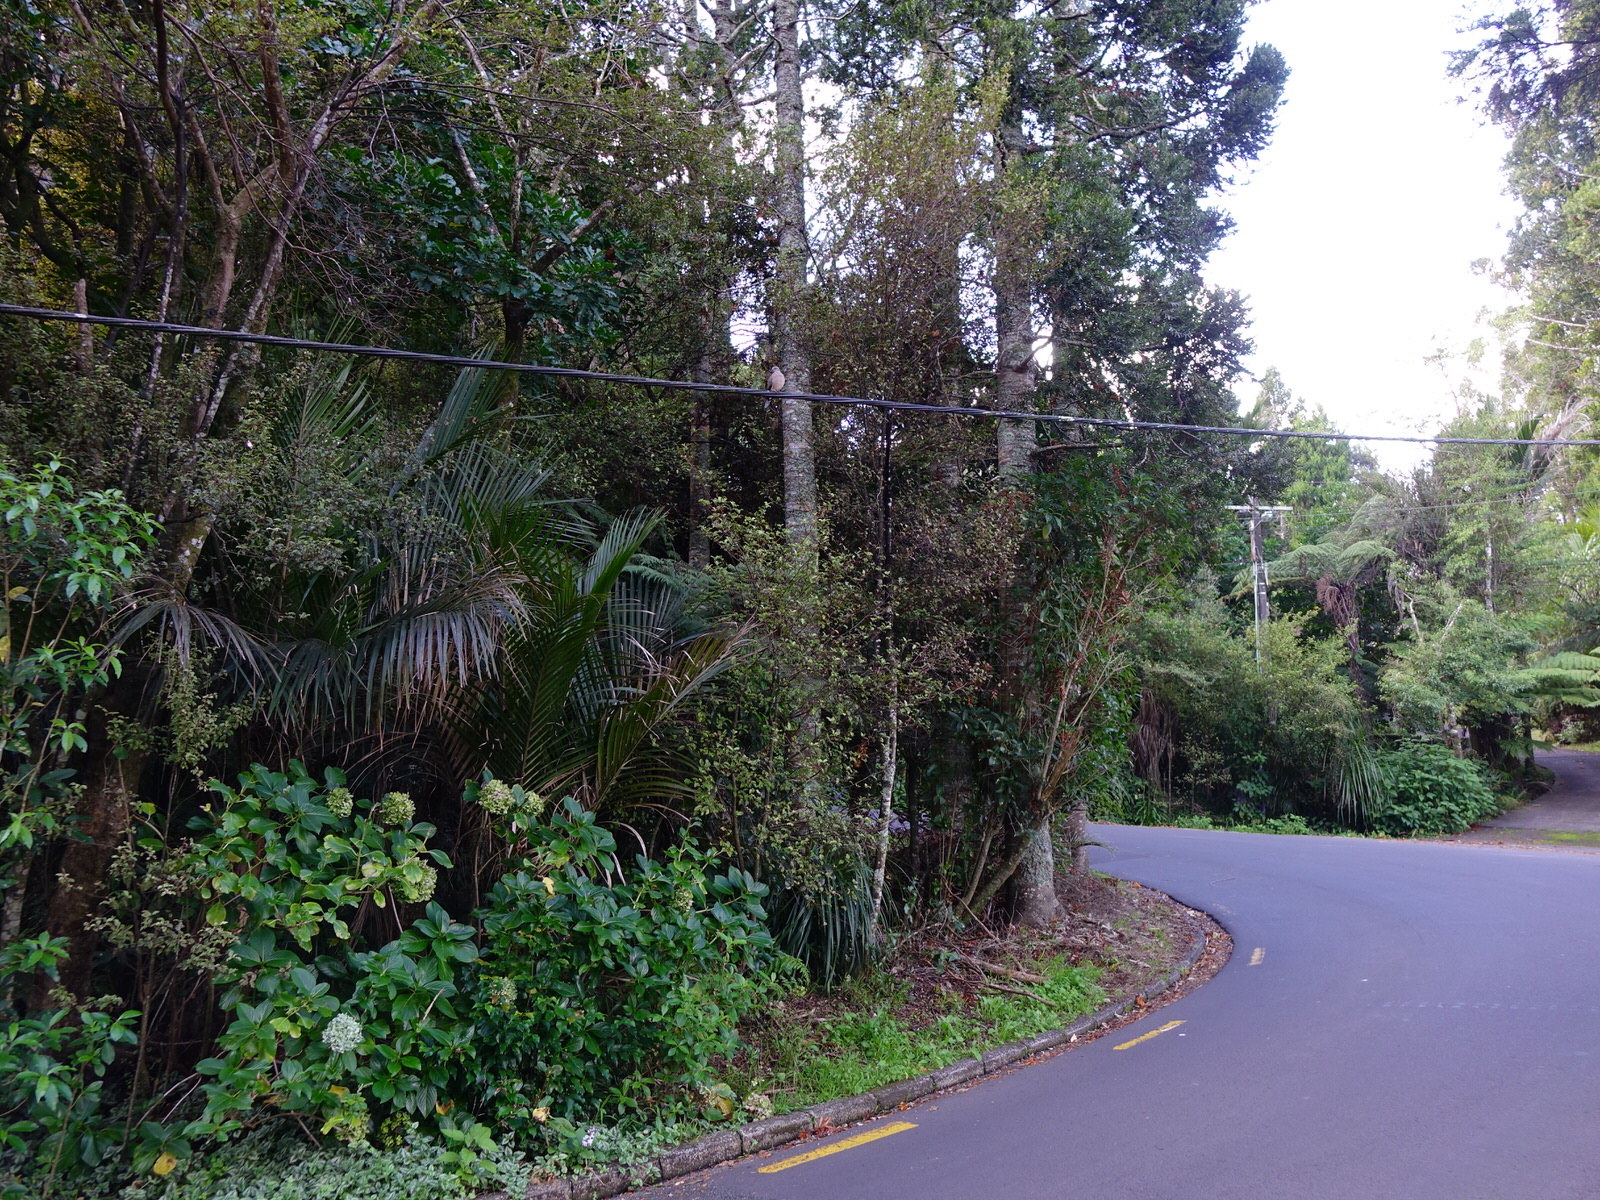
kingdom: Animalia
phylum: Chordata
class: Aves
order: Columbiformes
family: Columbidae
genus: Spilopelia
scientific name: Spilopelia chinensis
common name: Spotted dove
